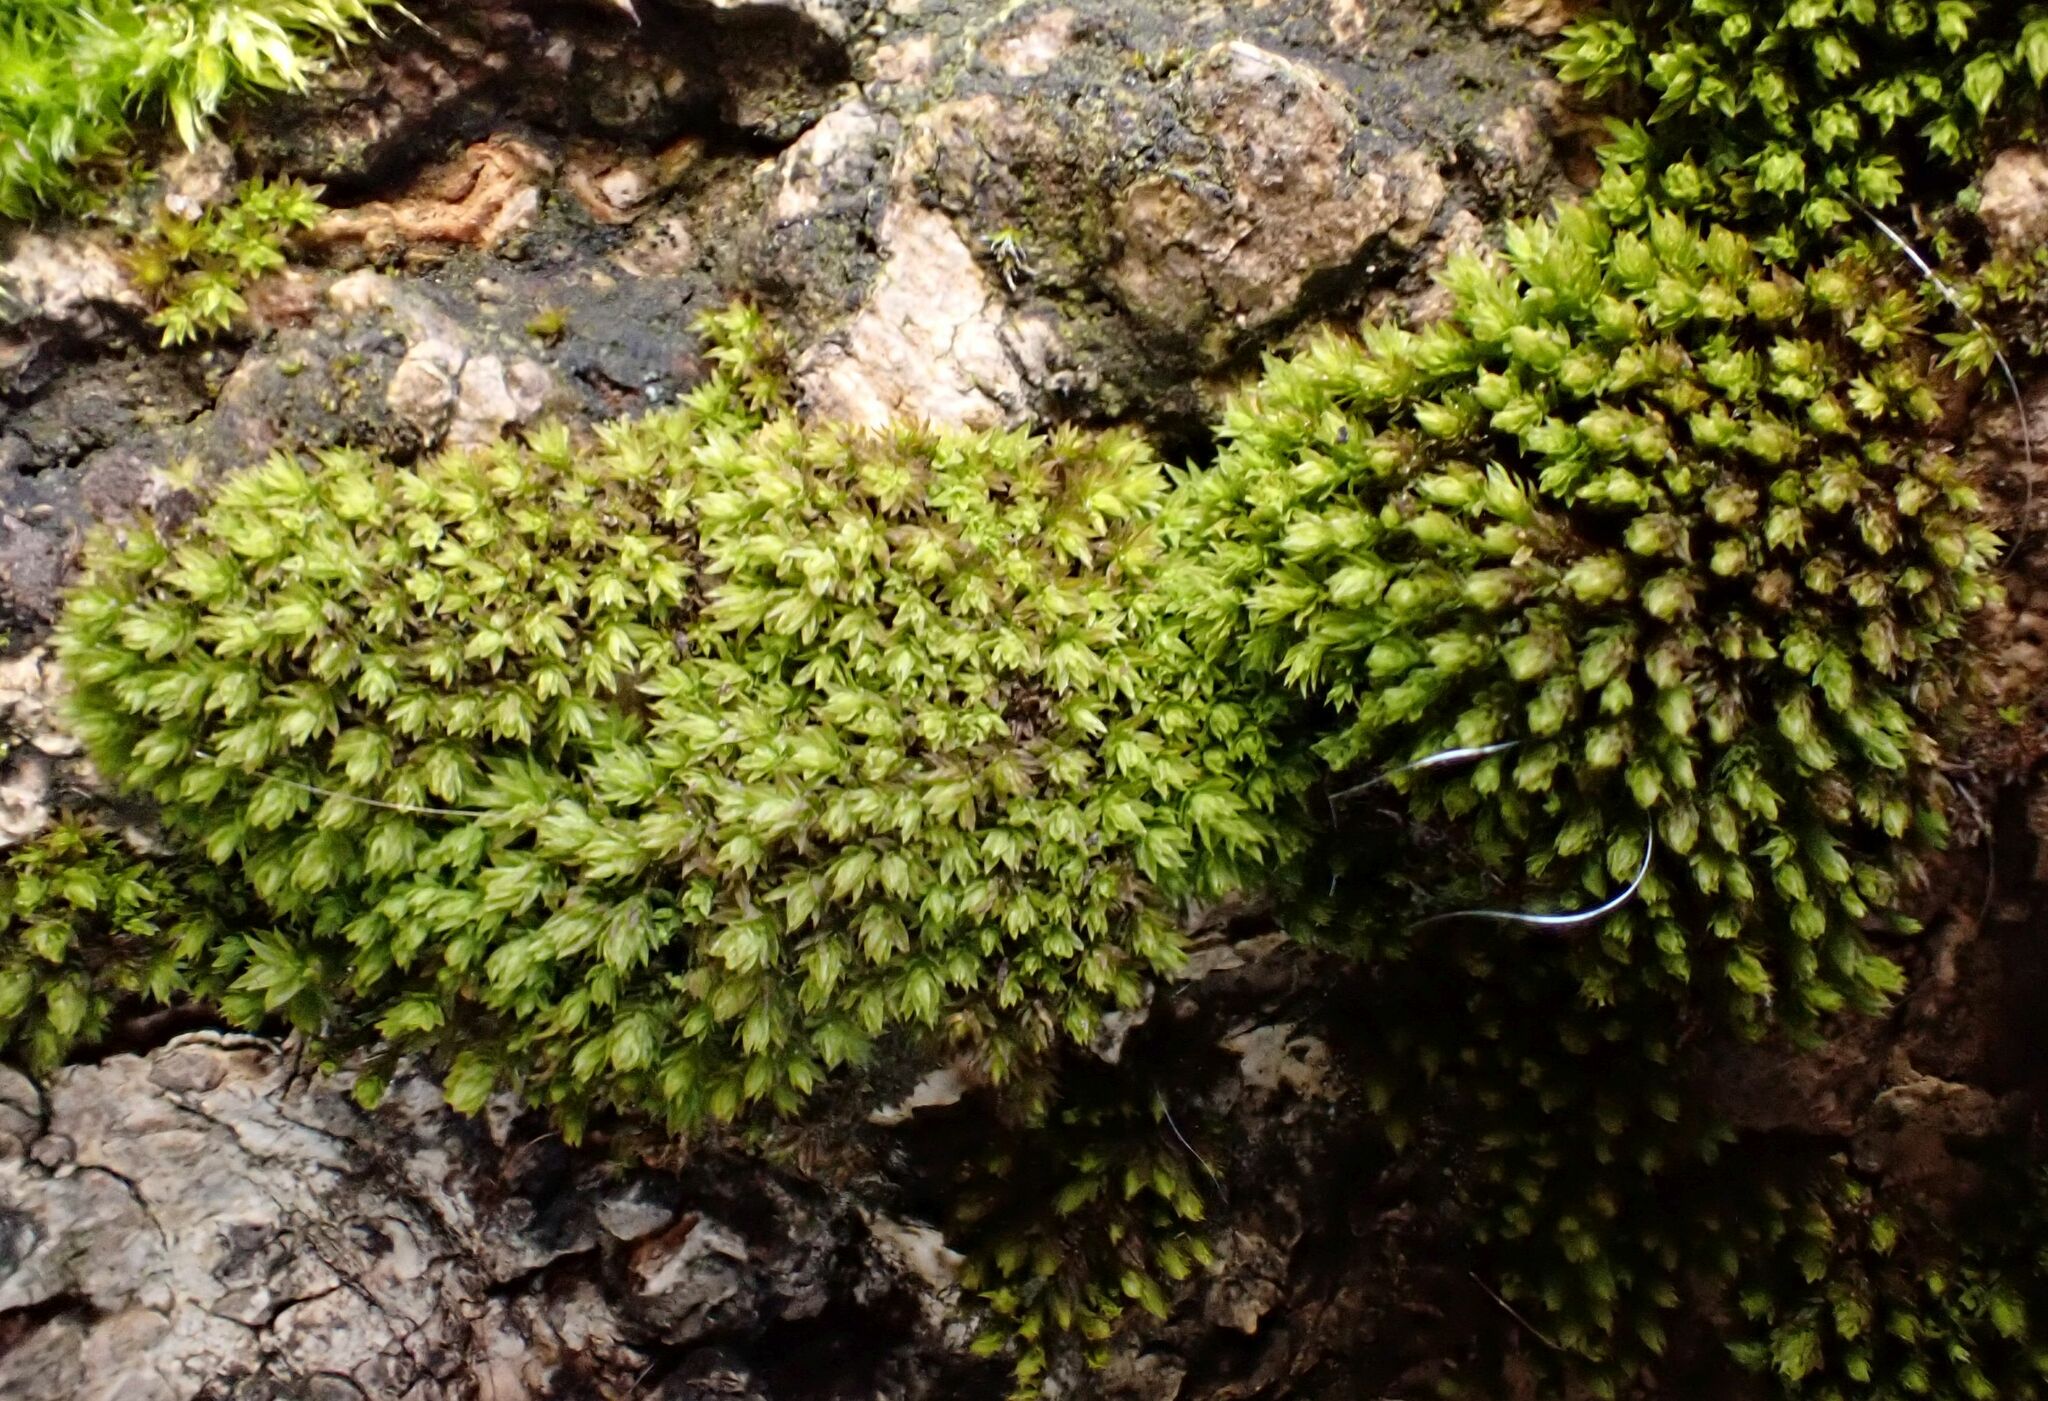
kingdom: Plantae
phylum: Bryophyta
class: Bryopsida
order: Orthotrichales
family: Orthotrichaceae
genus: Nyholmiella
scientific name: Nyholmiella obtusifolia
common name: Blunt-leaved bristle-moss
